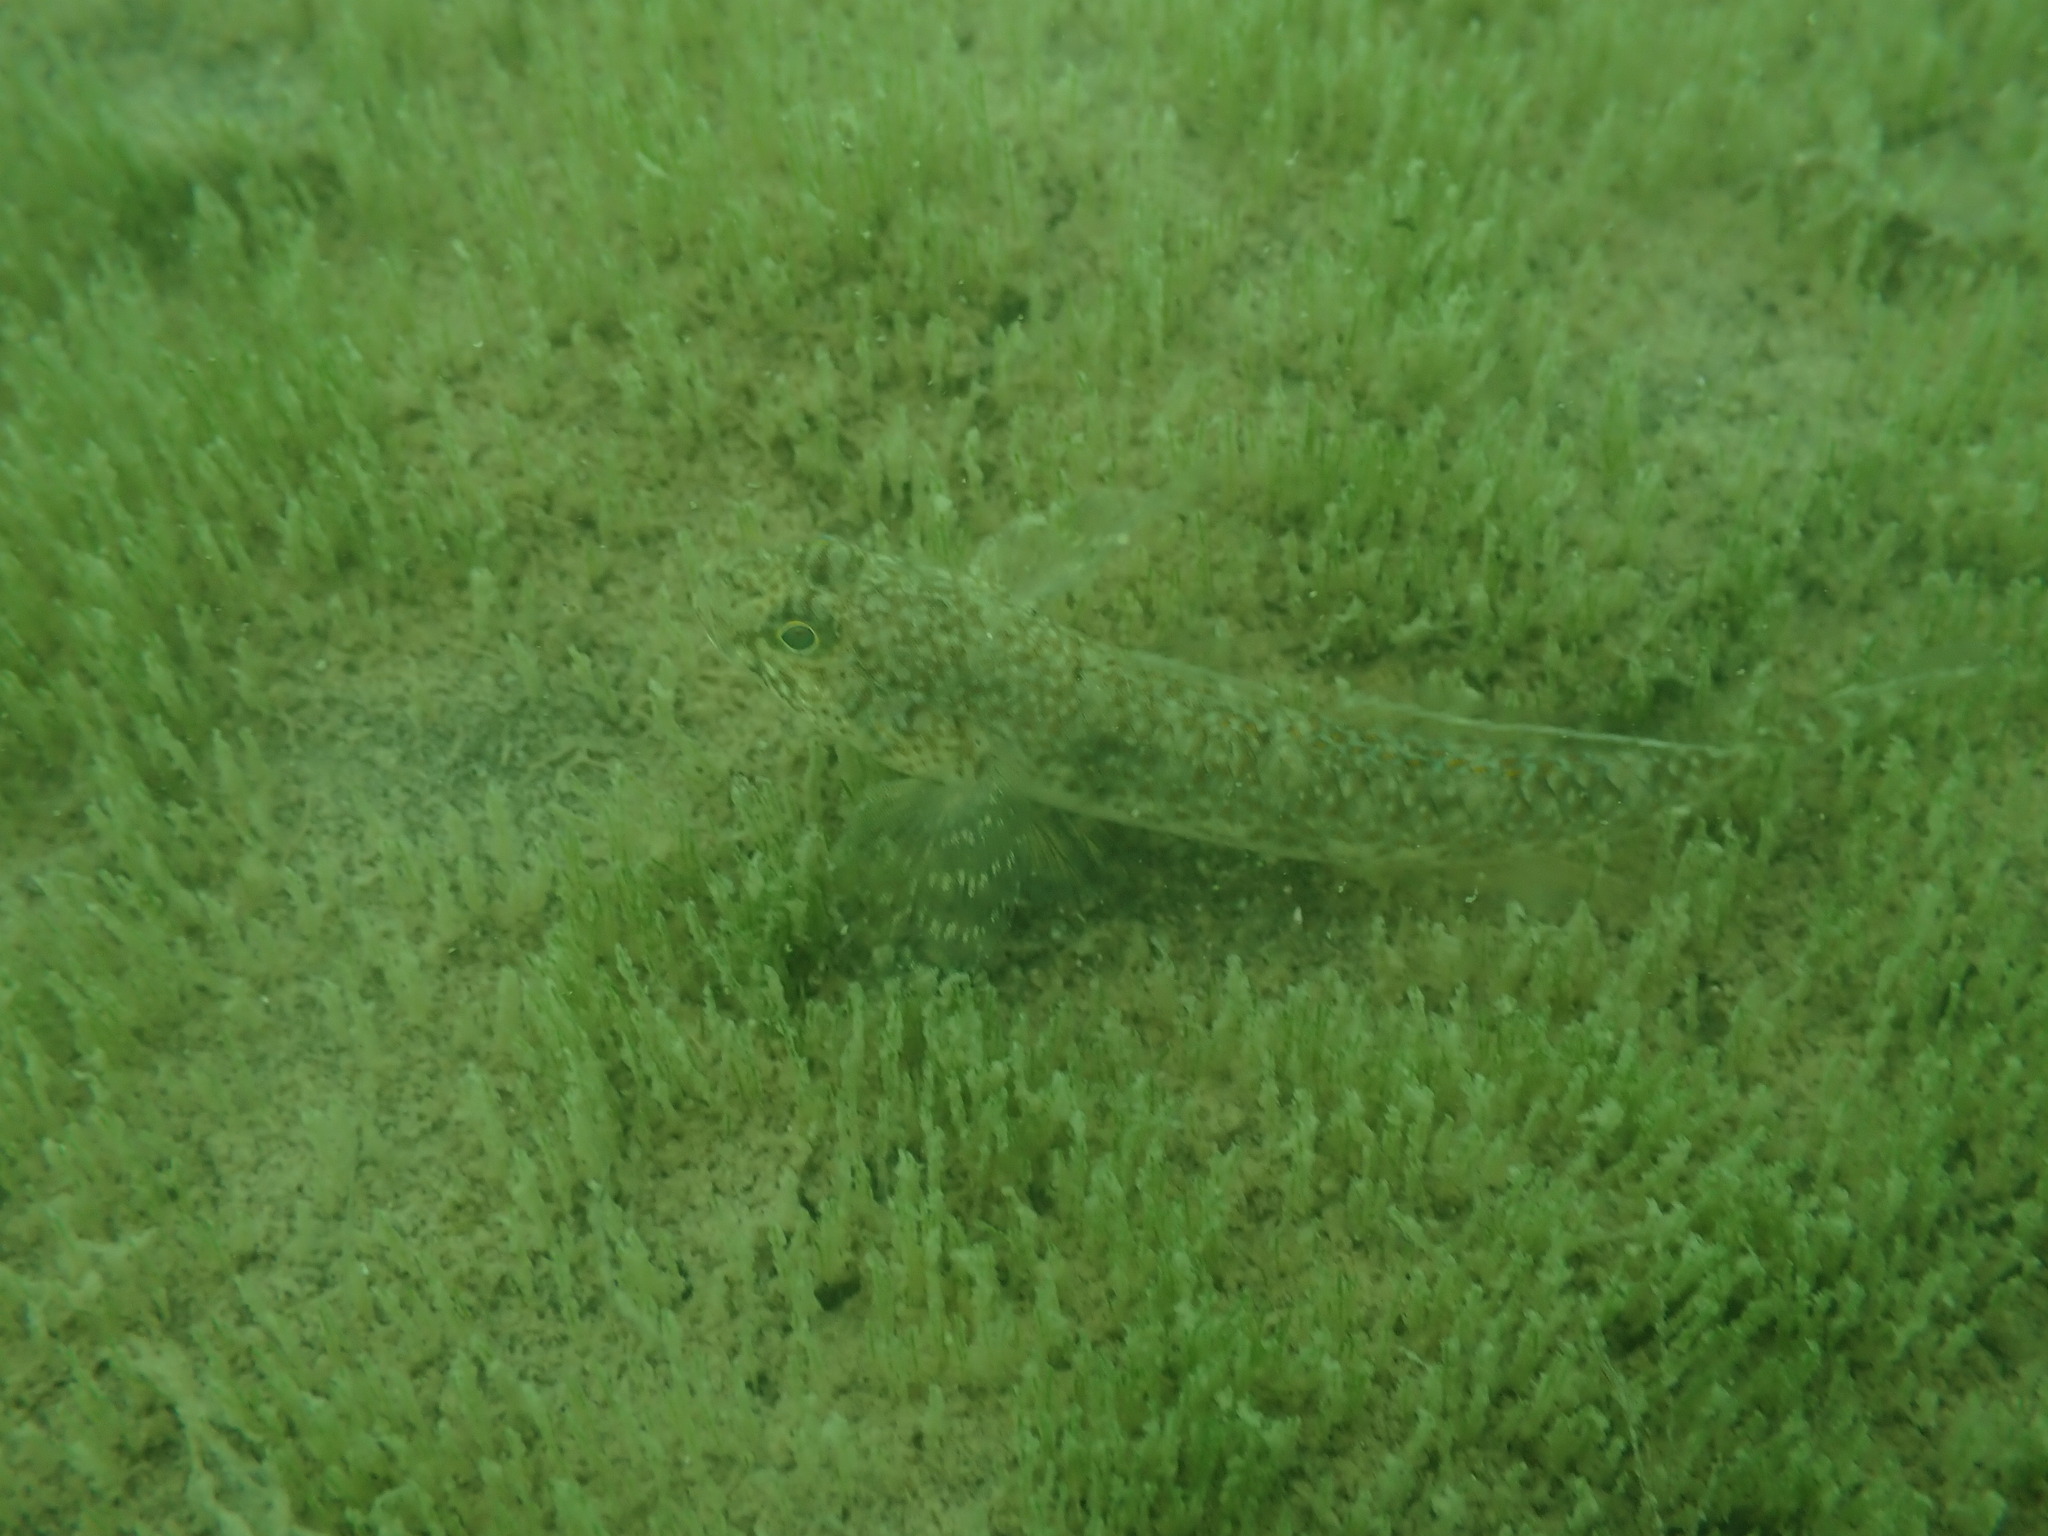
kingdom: Animalia
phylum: Chordata
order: Perciformes
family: Gobiidae
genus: Favonigobius
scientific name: Favonigobius lentiginosus
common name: Eastern longfin goby
